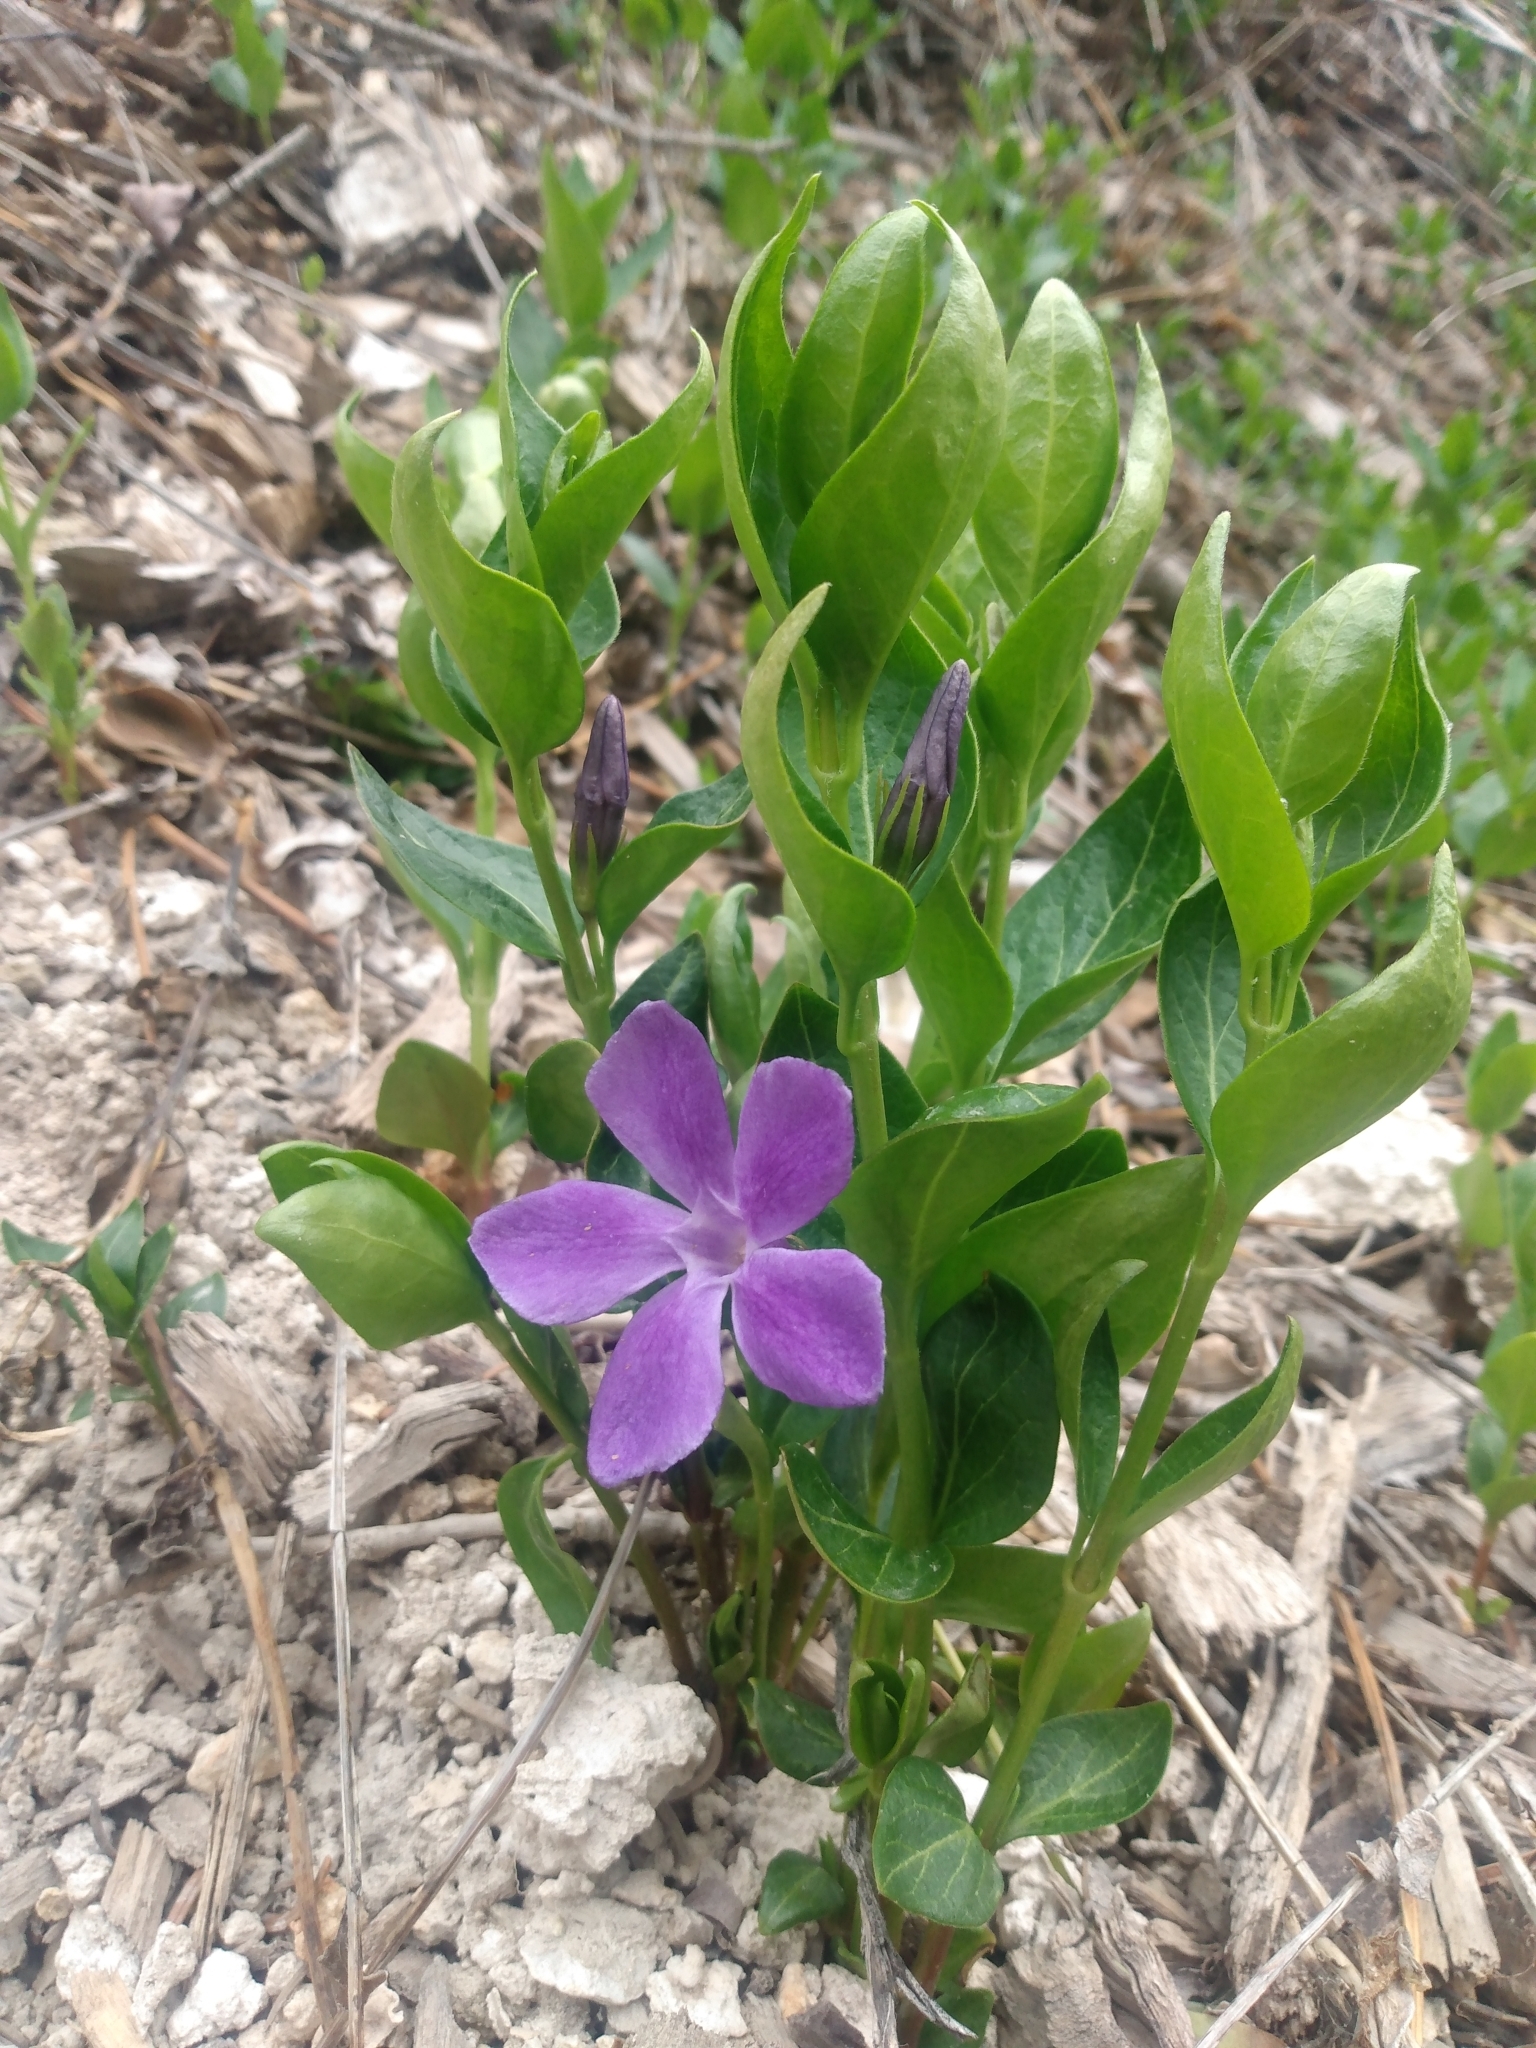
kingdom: Plantae
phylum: Tracheophyta
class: Magnoliopsida
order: Gentianales
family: Apocynaceae
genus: Vinca
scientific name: Vinca major
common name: Greater periwinkle
